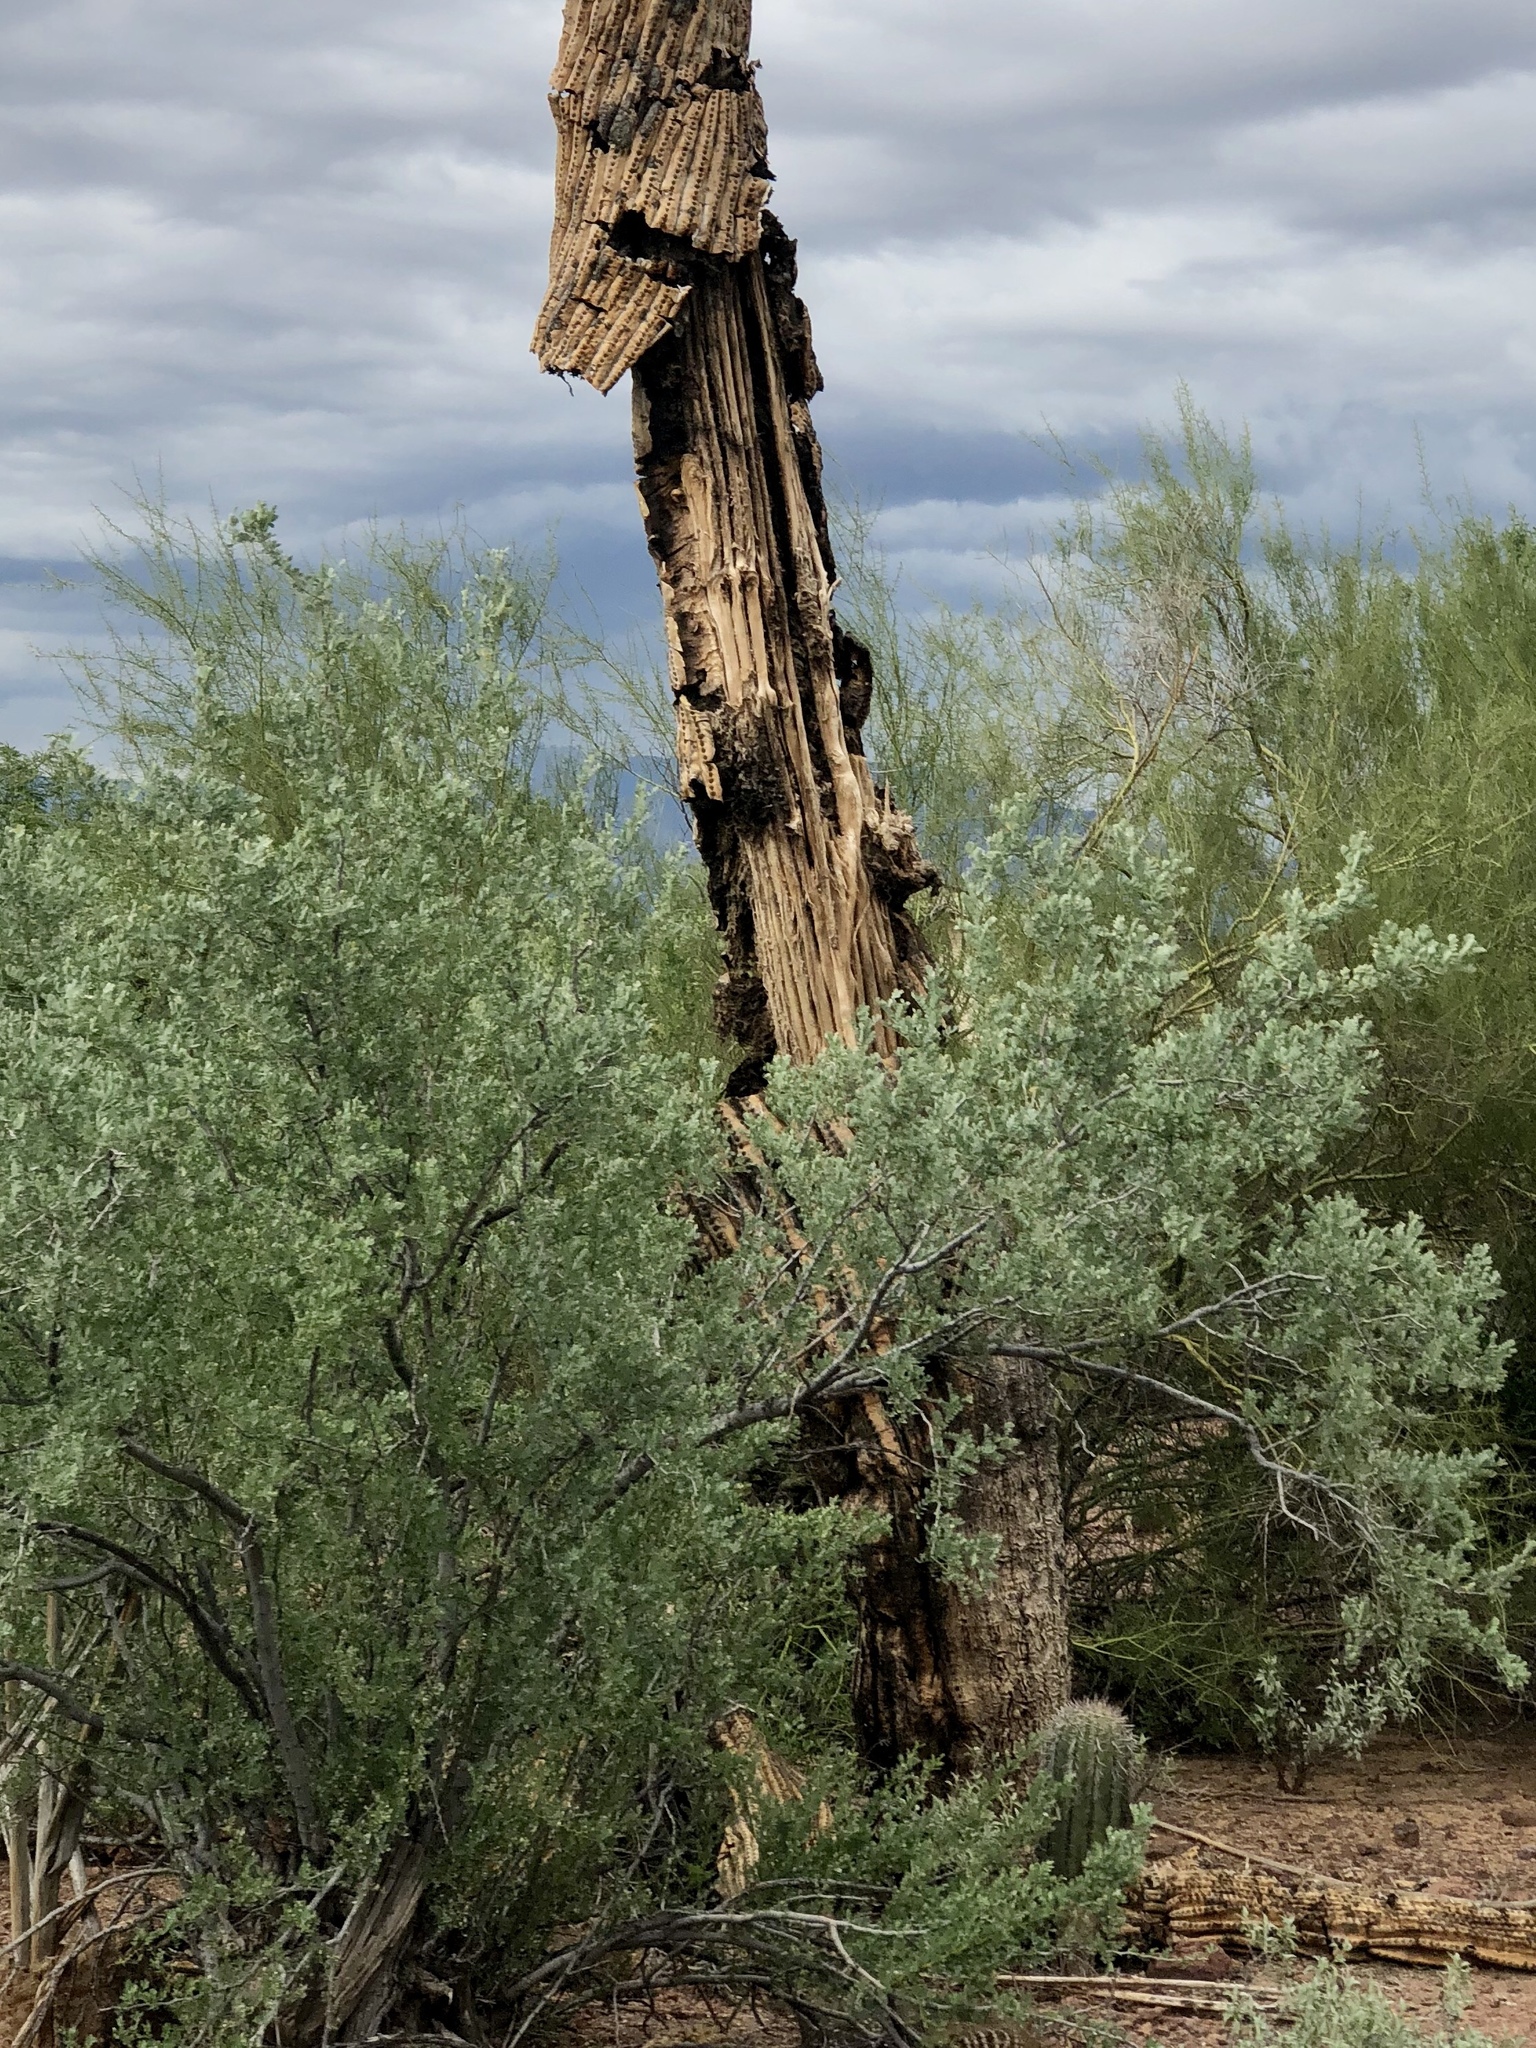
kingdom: Plantae
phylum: Tracheophyta
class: Magnoliopsida
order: Fabales
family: Fabaceae
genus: Olneya
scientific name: Olneya tesota
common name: Desert ironwood
